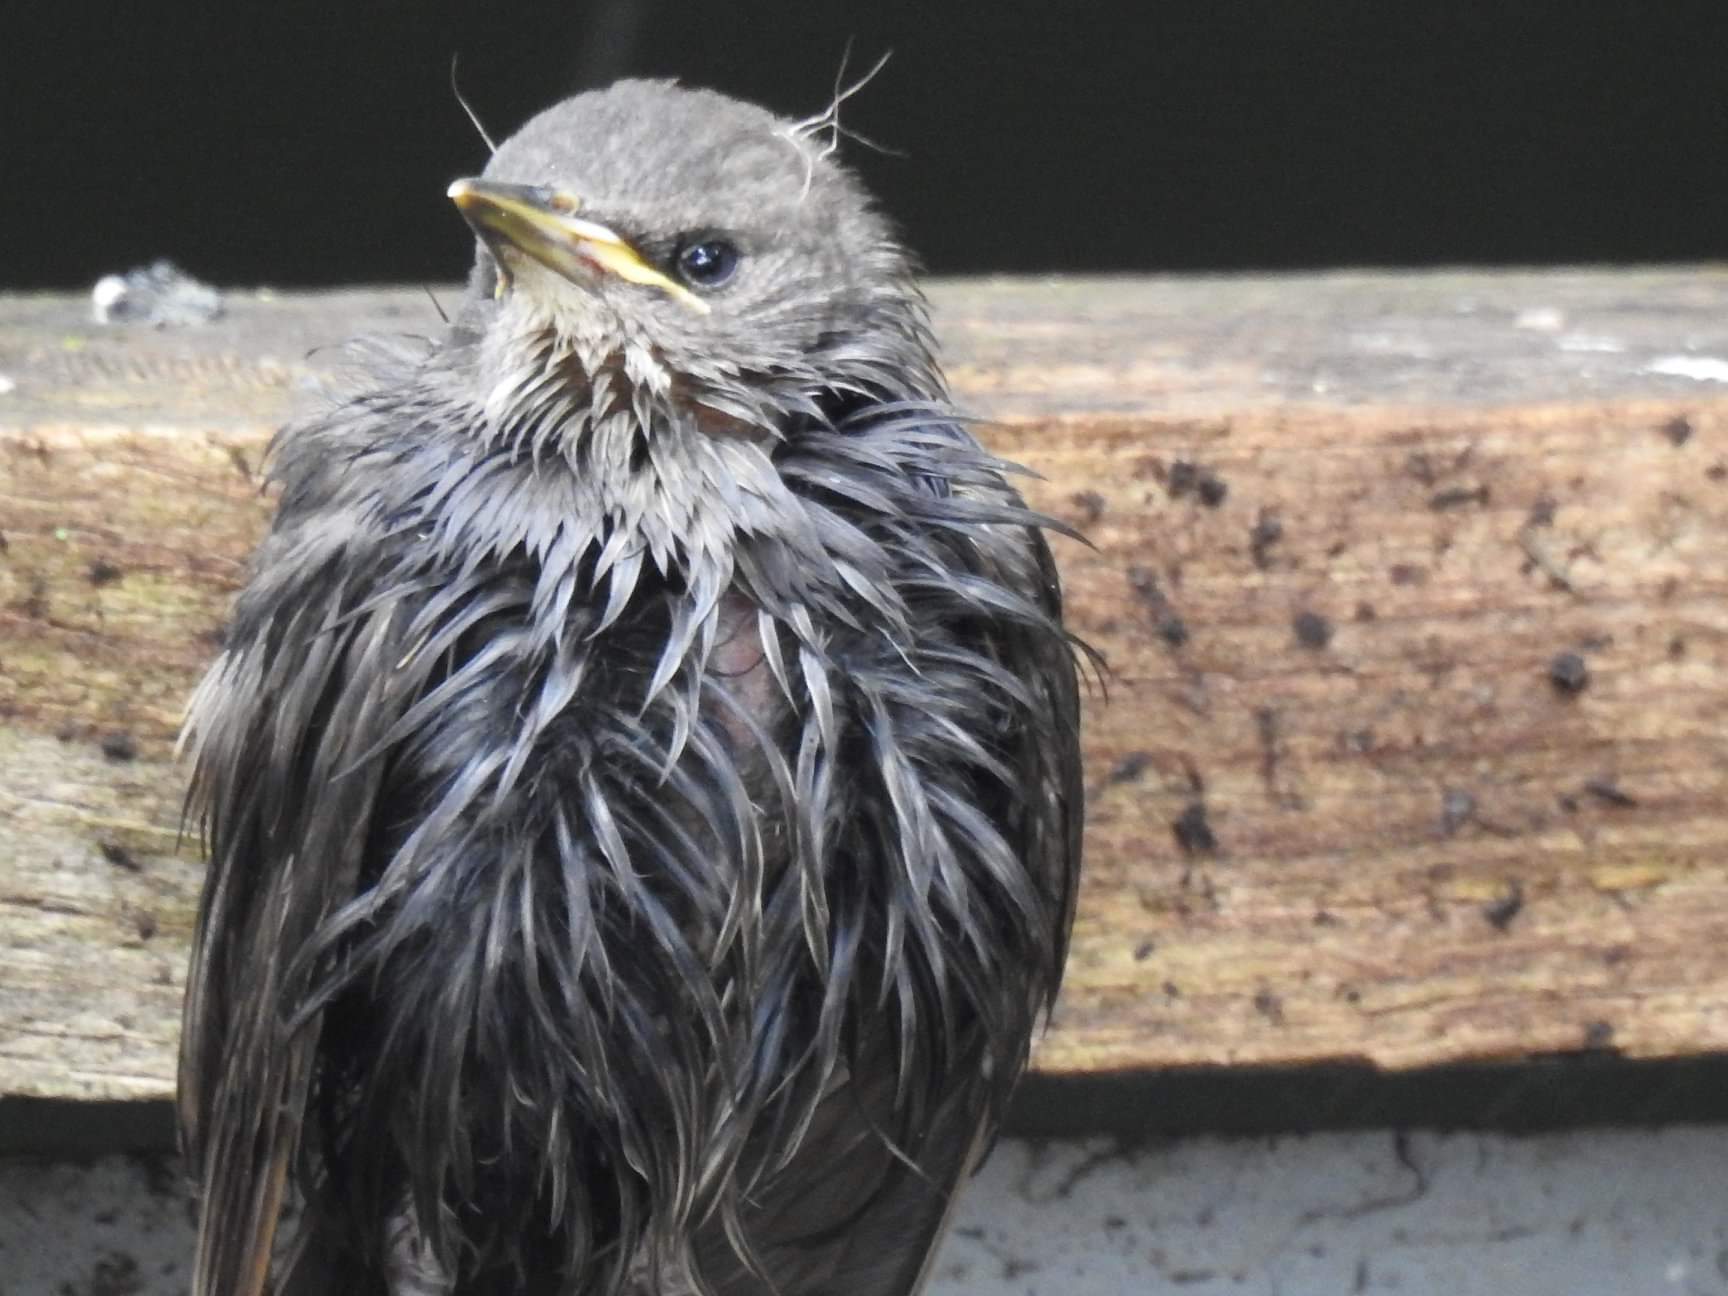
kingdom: Animalia
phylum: Chordata
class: Aves
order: Passeriformes
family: Sturnidae
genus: Sturnus
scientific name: Sturnus vulgaris
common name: Common starling
